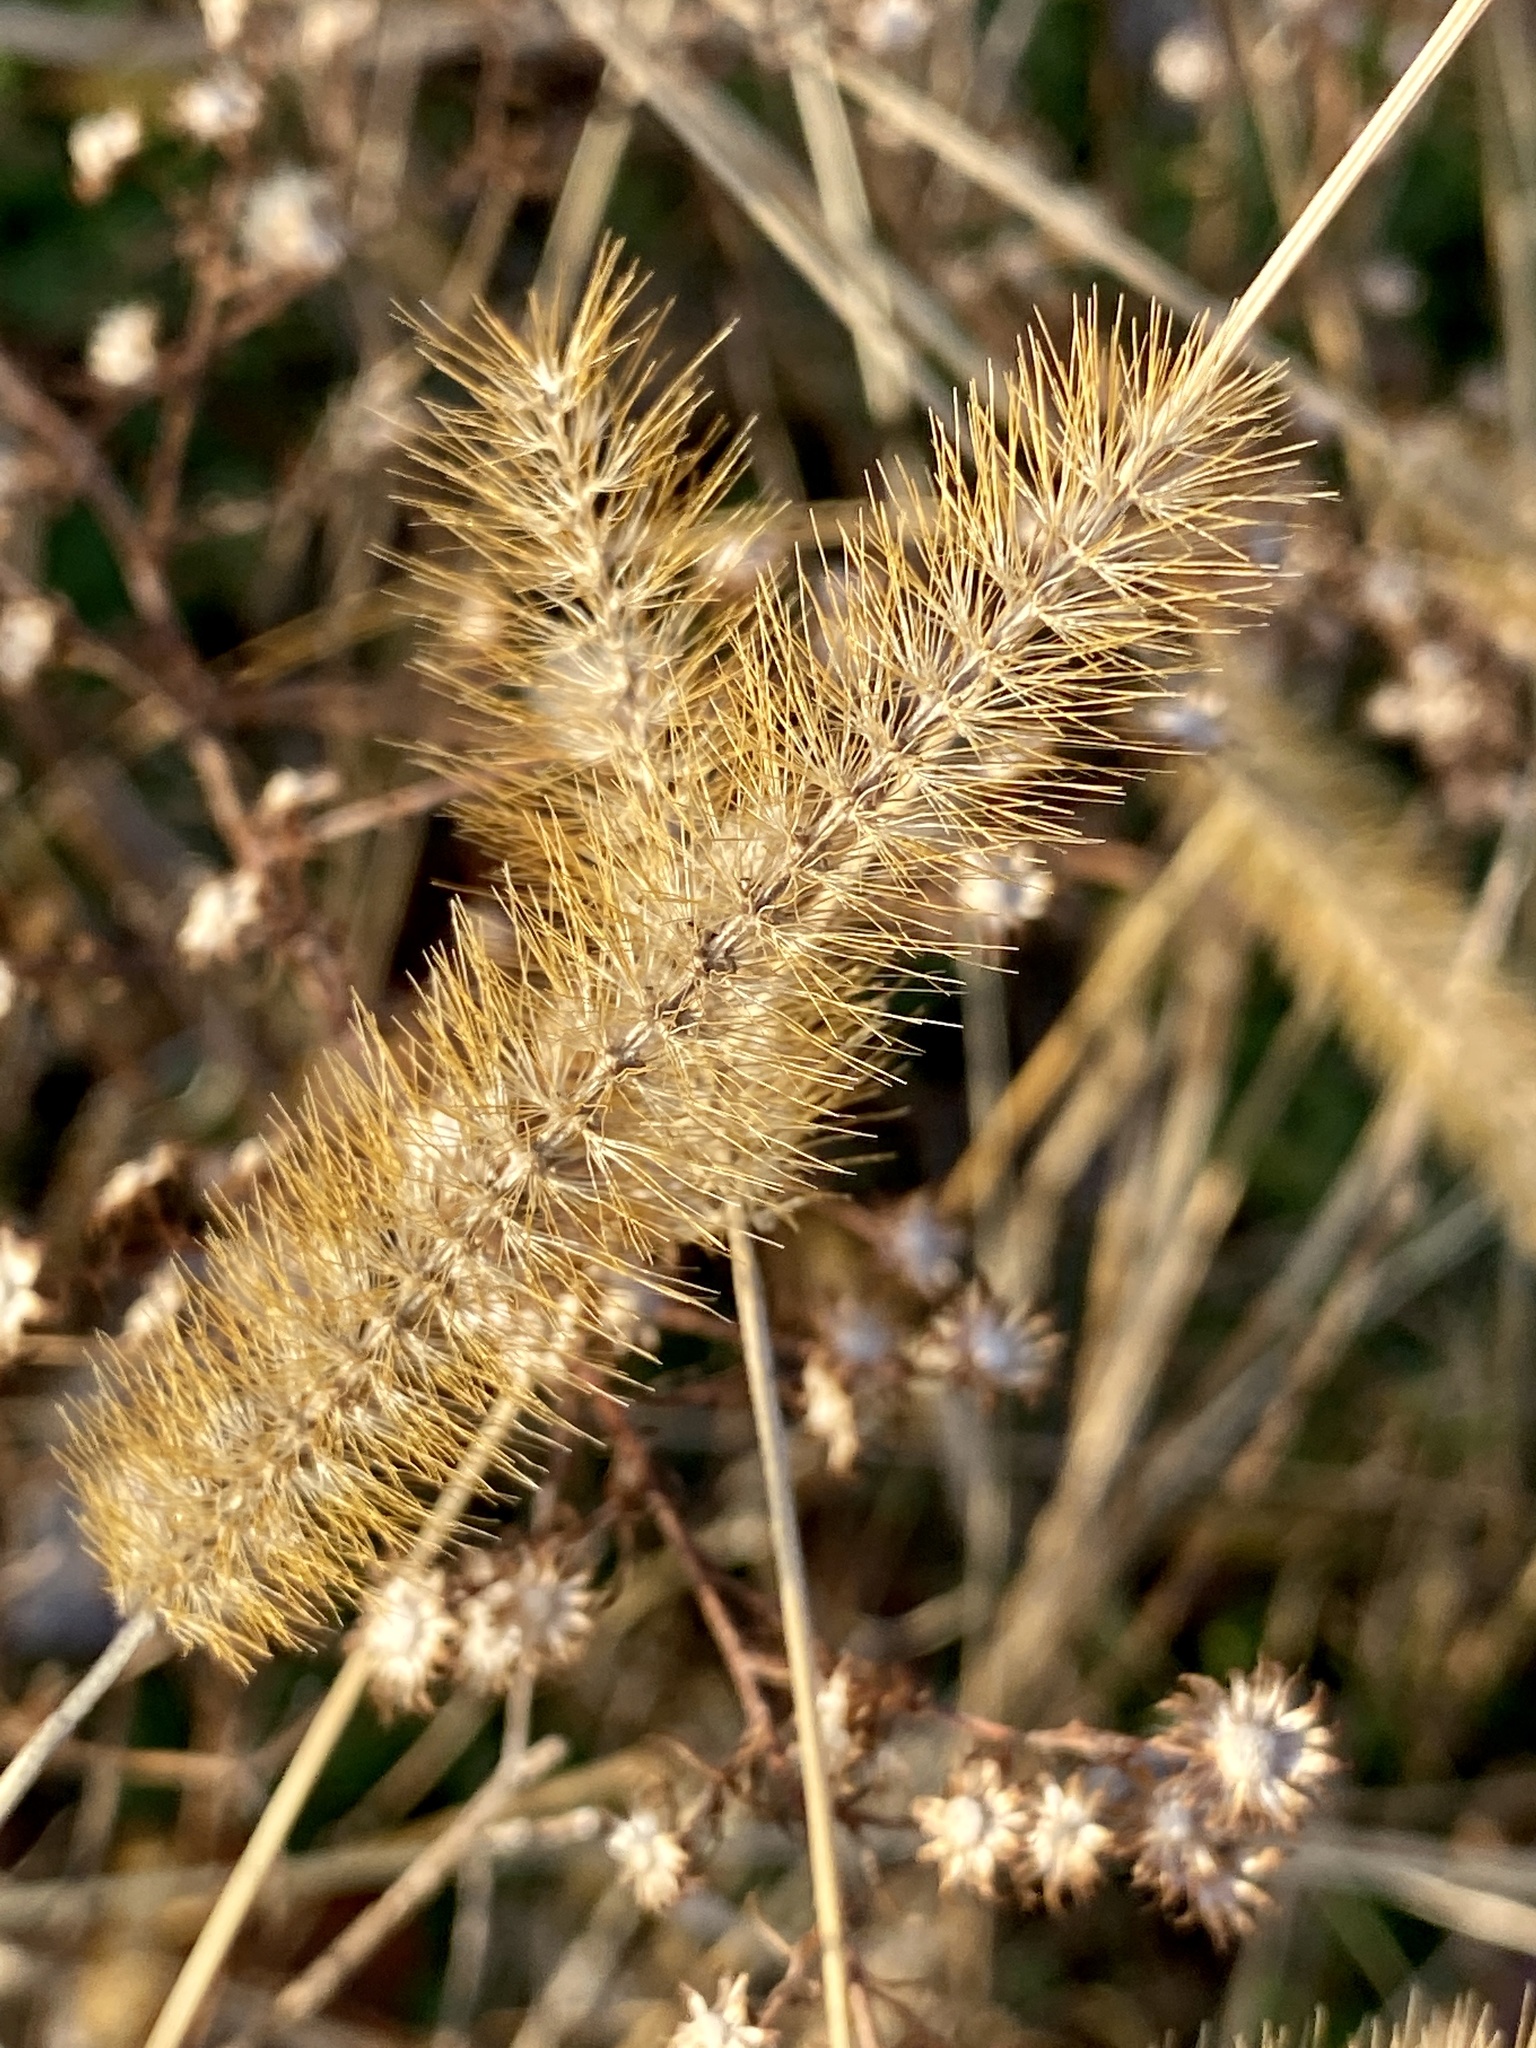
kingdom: Plantae
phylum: Tracheophyta
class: Liliopsida
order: Poales
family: Poaceae
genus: Setaria
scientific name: Setaria pumila
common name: Yellow bristle-grass
